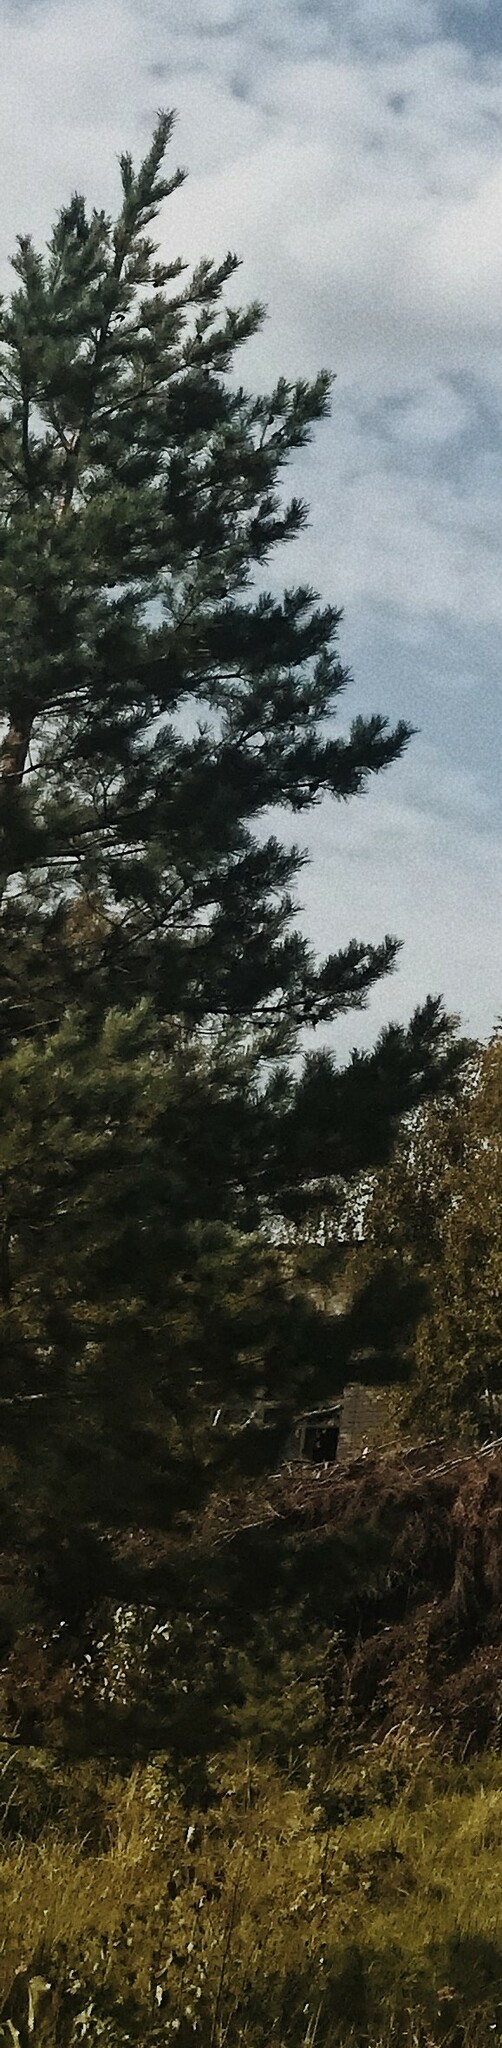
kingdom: Plantae
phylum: Tracheophyta
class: Pinopsida
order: Pinales
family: Pinaceae
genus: Pinus
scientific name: Pinus sylvestris
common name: Scots pine
